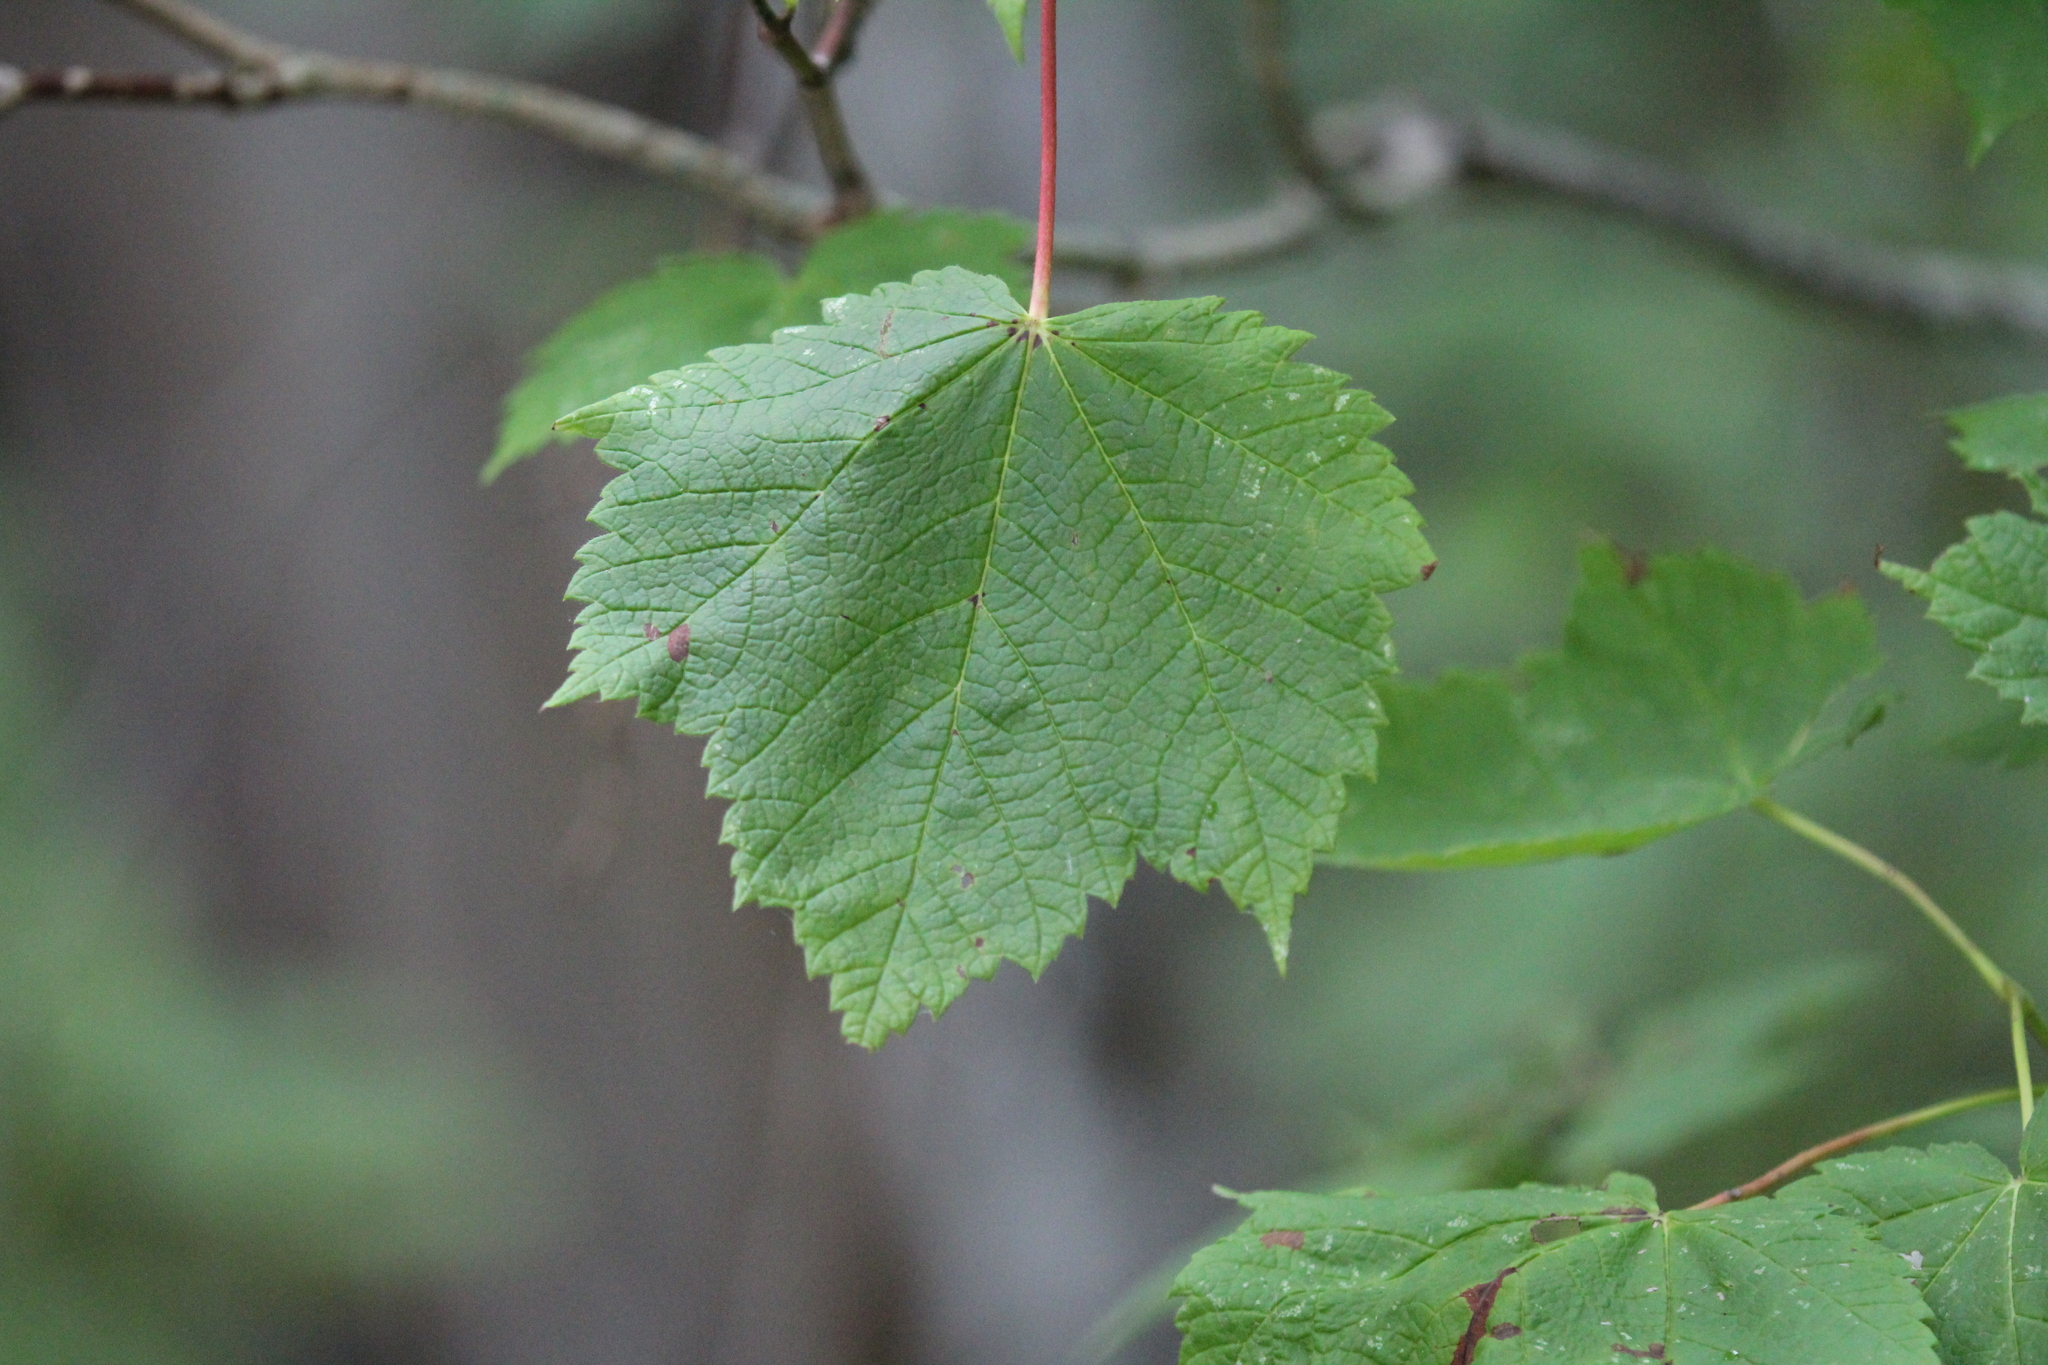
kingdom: Plantae
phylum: Tracheophyta
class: Magnoliopsida
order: Sapindales
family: Sapindaceae
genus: Acer
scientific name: Acer spicatum
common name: Mountain maple
